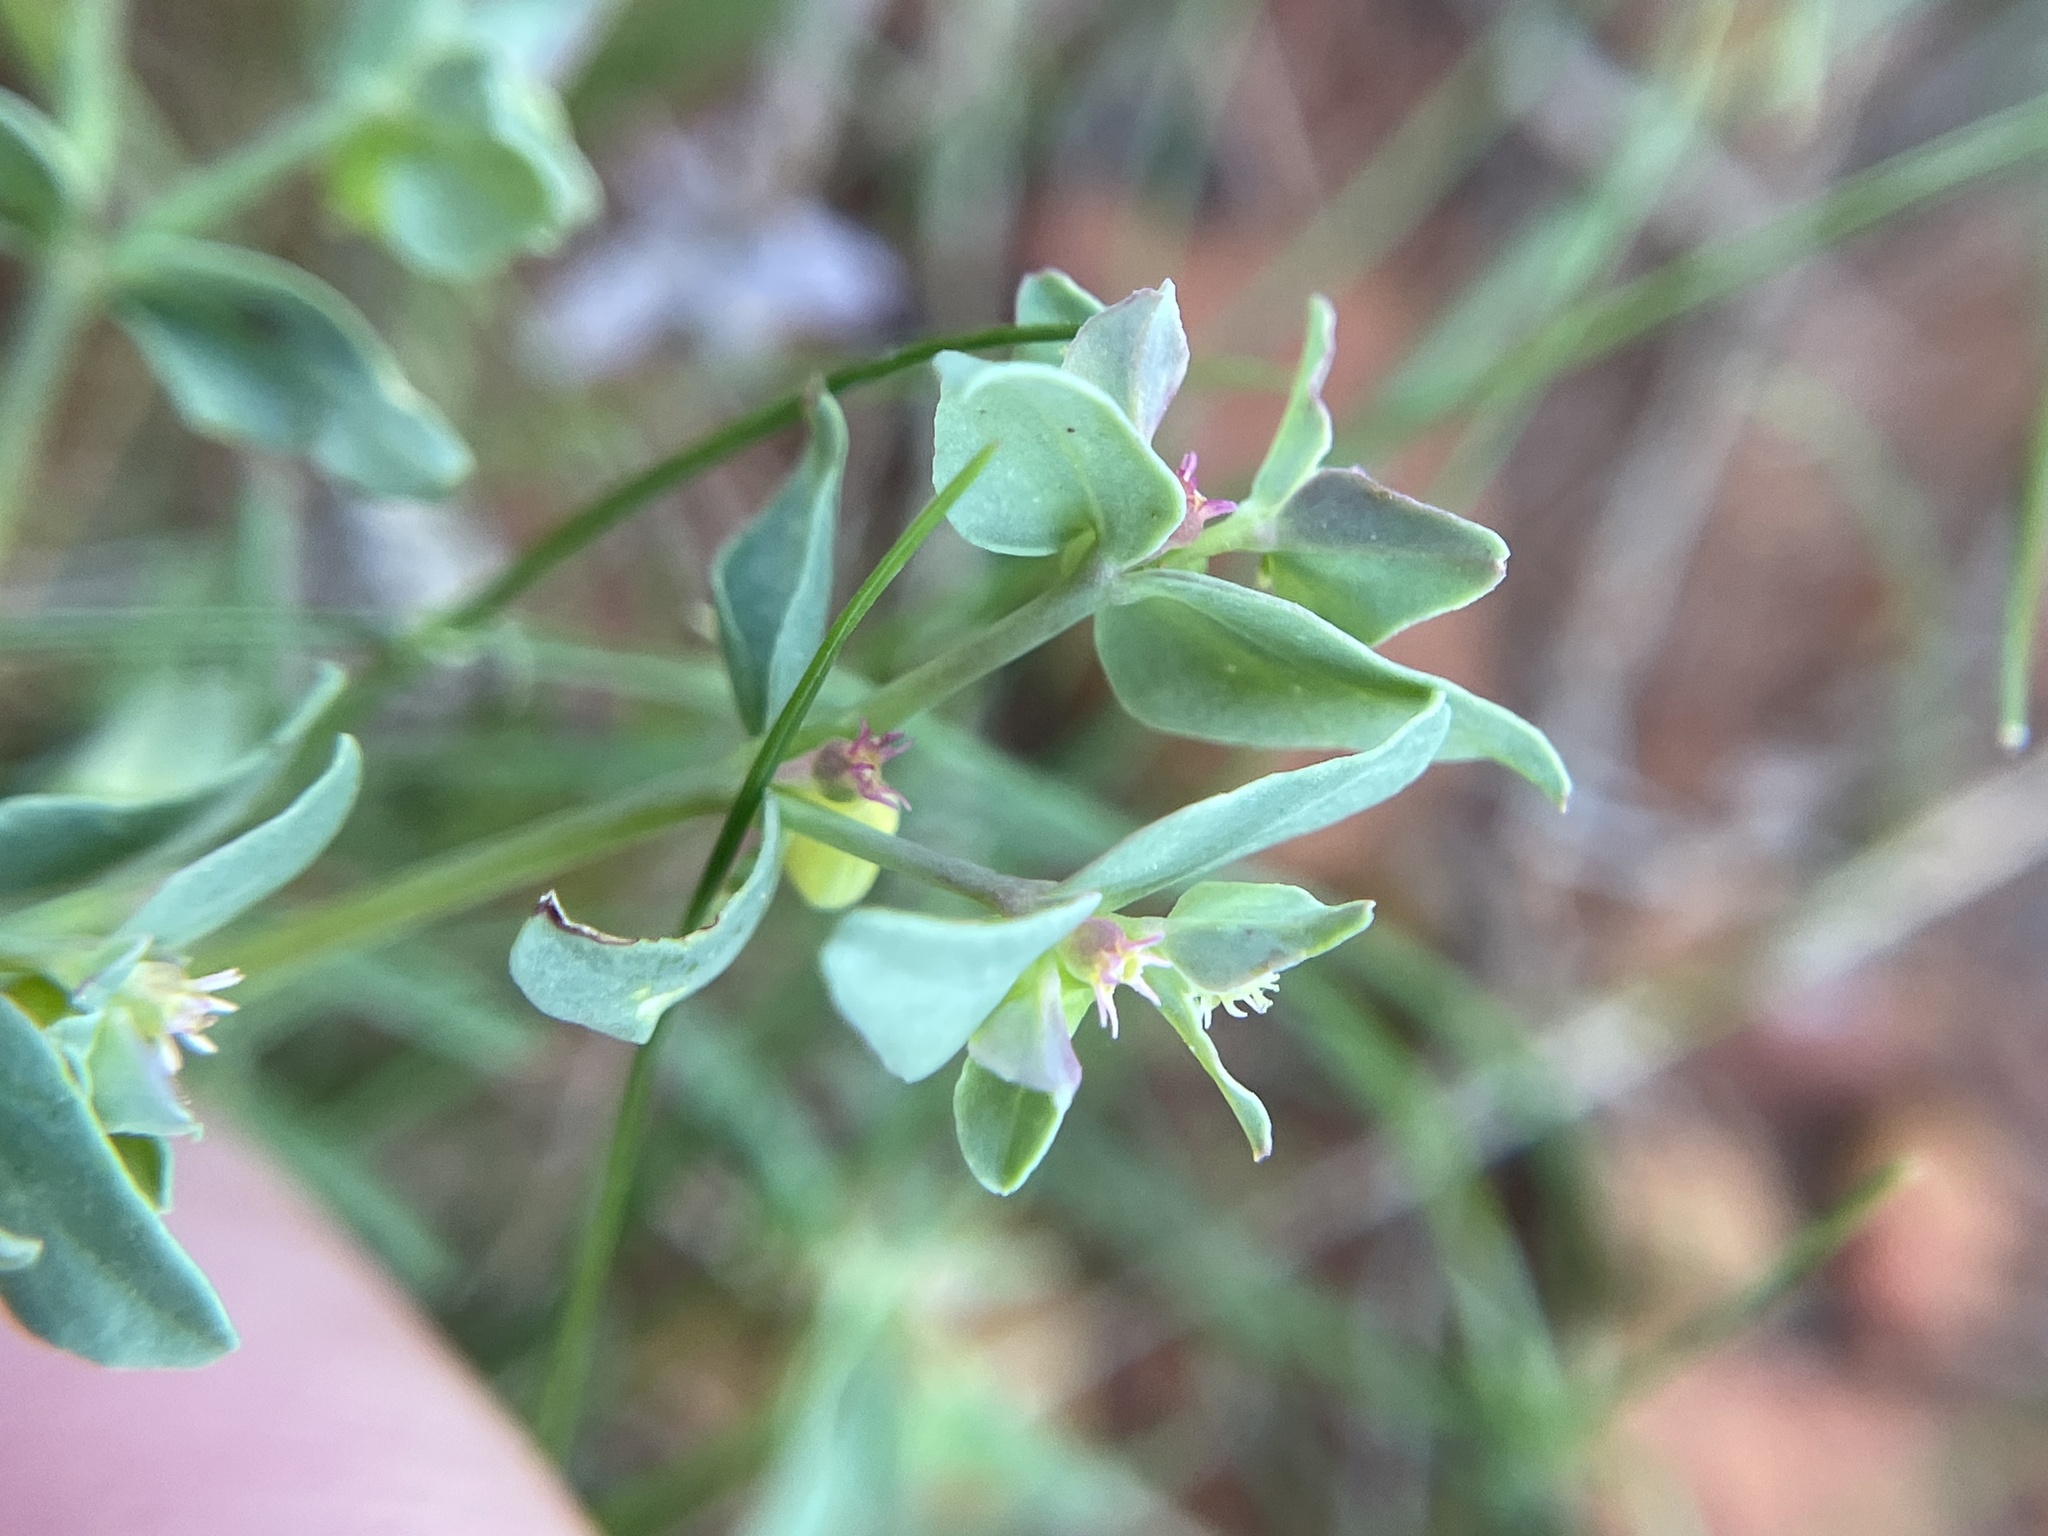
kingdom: Plantae
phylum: Tracheophyta
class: Magnoliopsida
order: Malpighiales
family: Euphorbiaceae
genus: Euphorbia
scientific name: Euphorbia peplidion
